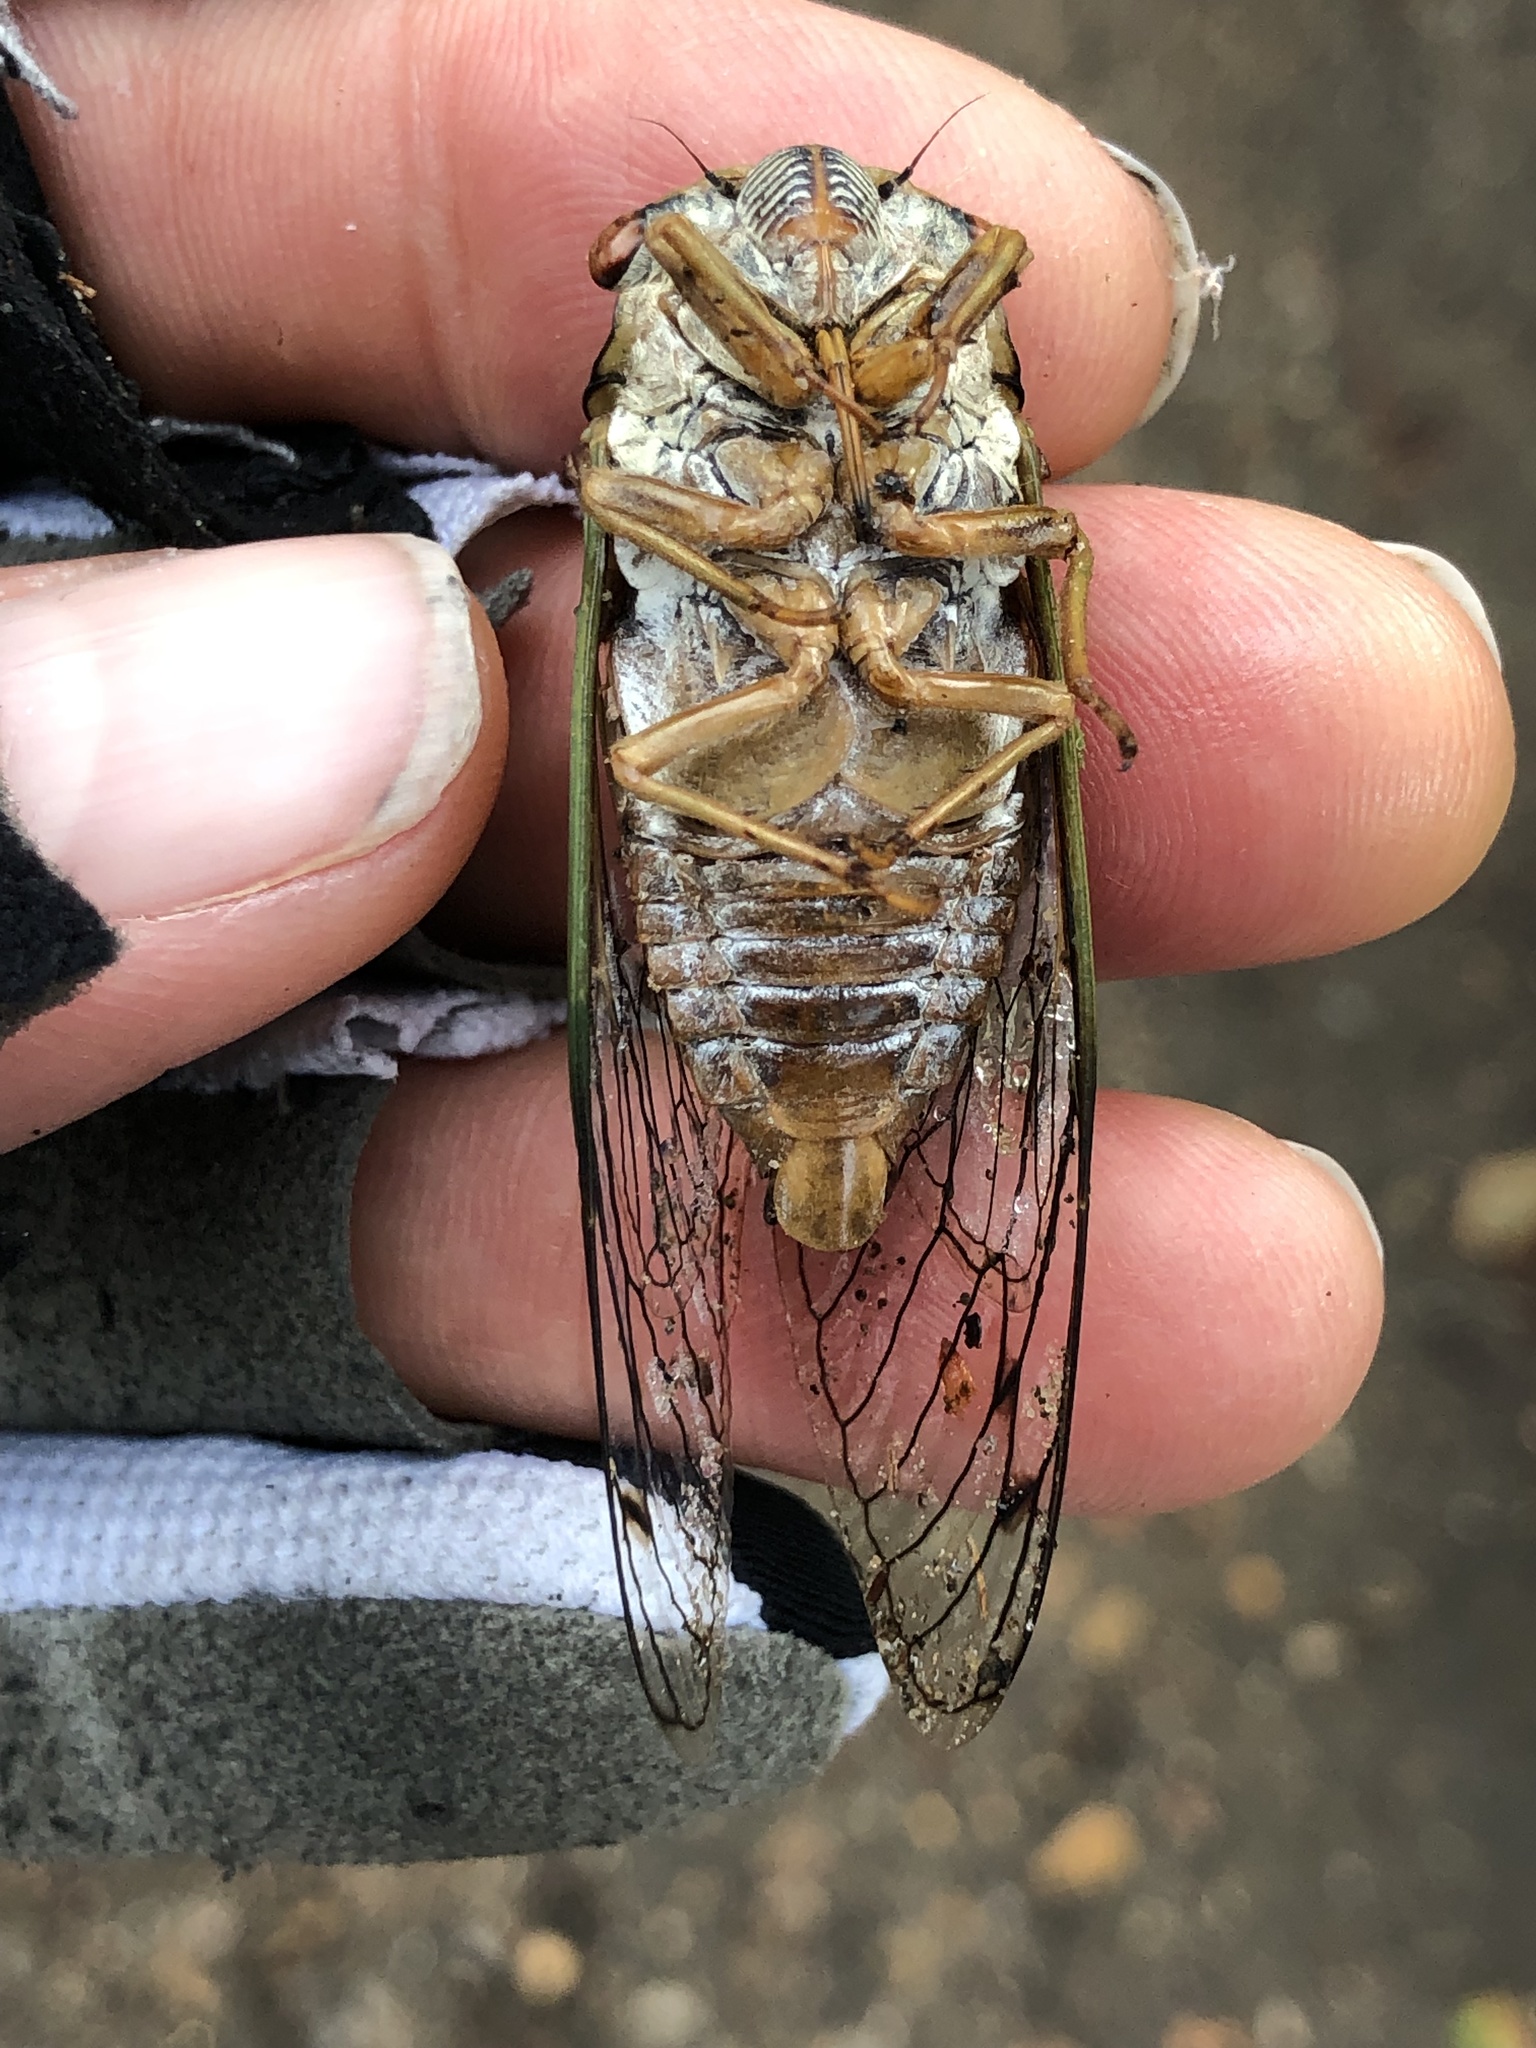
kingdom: Animalia
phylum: Arthropoda
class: Insecta
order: Hemiptera
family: Cicadidae
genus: Megatibicen
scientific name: Megatibicen resh
